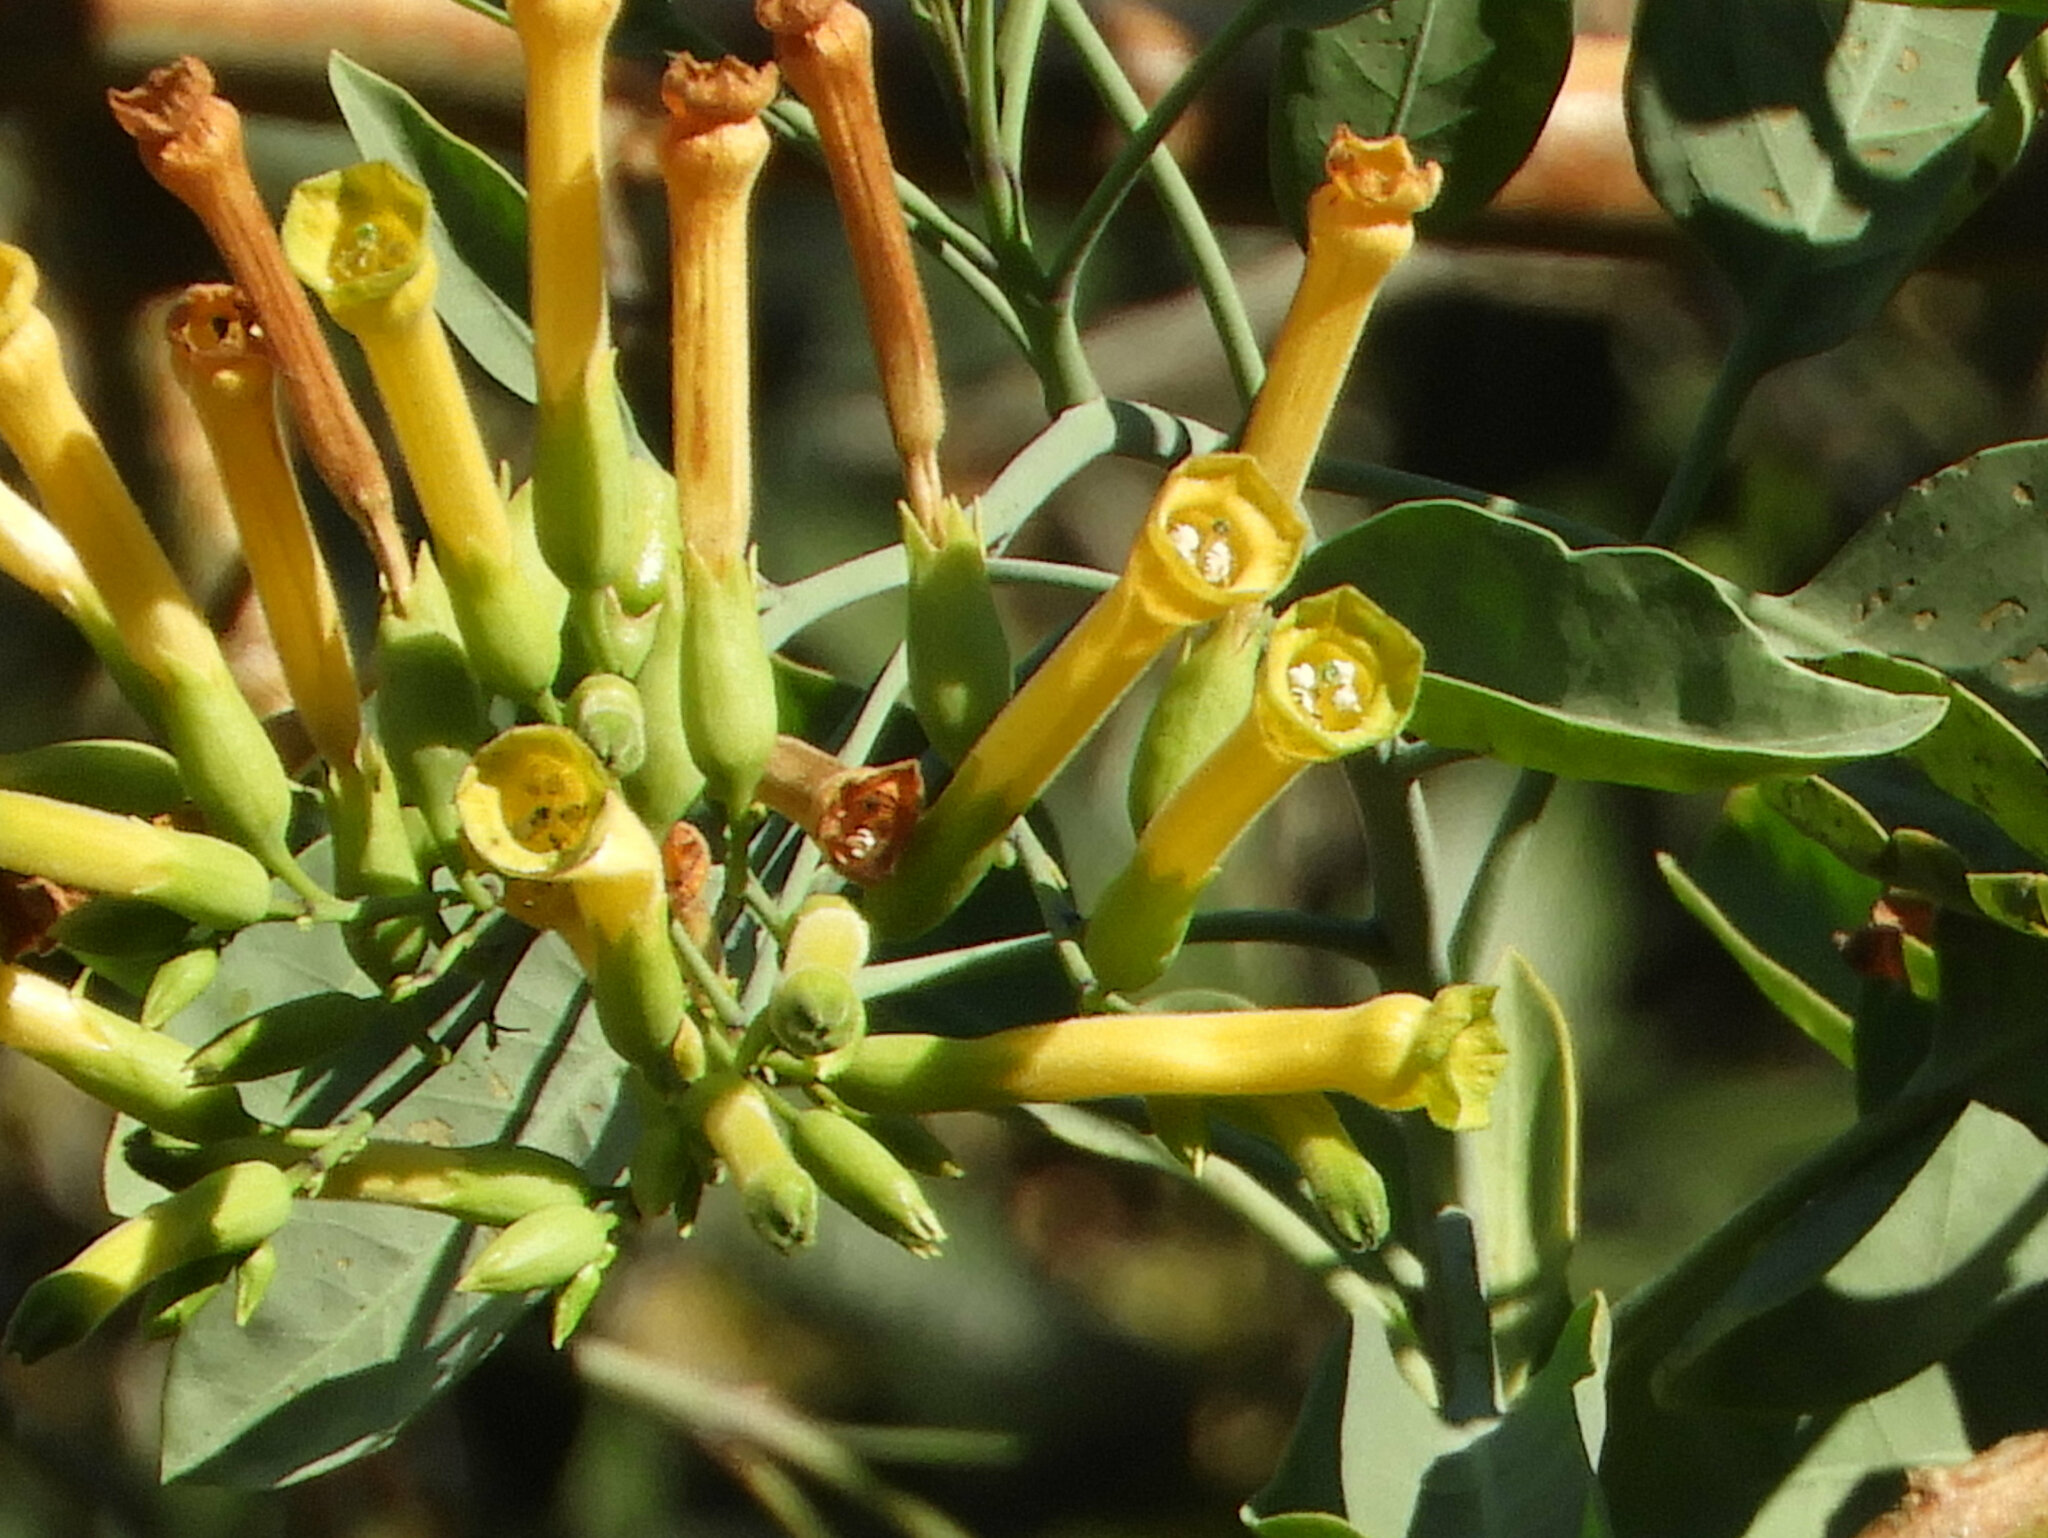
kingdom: Plantae
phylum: Tracheophyta
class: Magnoliopsida
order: Solanales
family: Solanaceae
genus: Nicotiana
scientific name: Nicotiana glauca
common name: Tree tobacco
